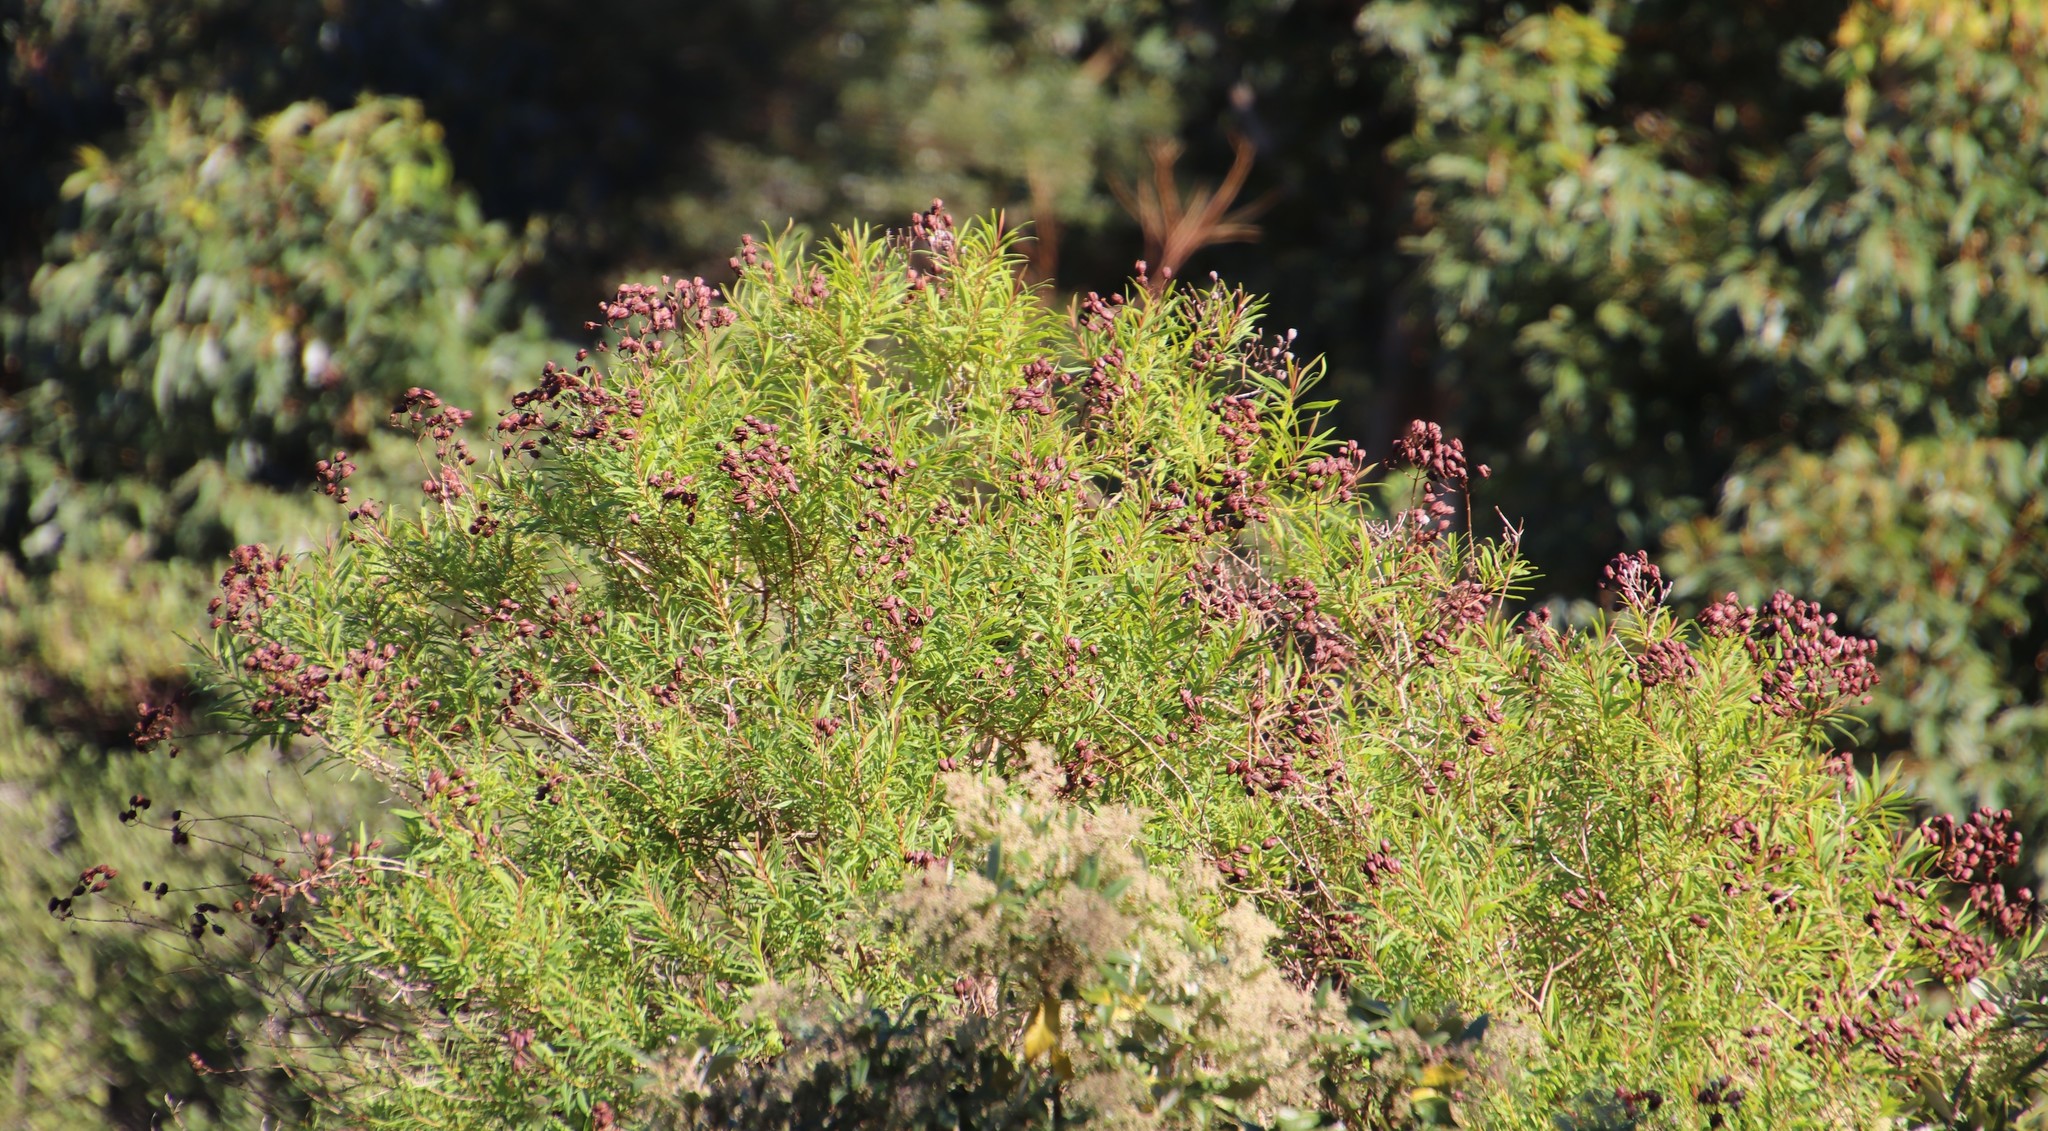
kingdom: Plantae
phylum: Tracheophyta
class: Magnoliopsida
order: Malpighiales
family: Hypericaceae
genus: Hypericum
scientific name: Hypericum canariense
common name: Canary island st. johnswort
